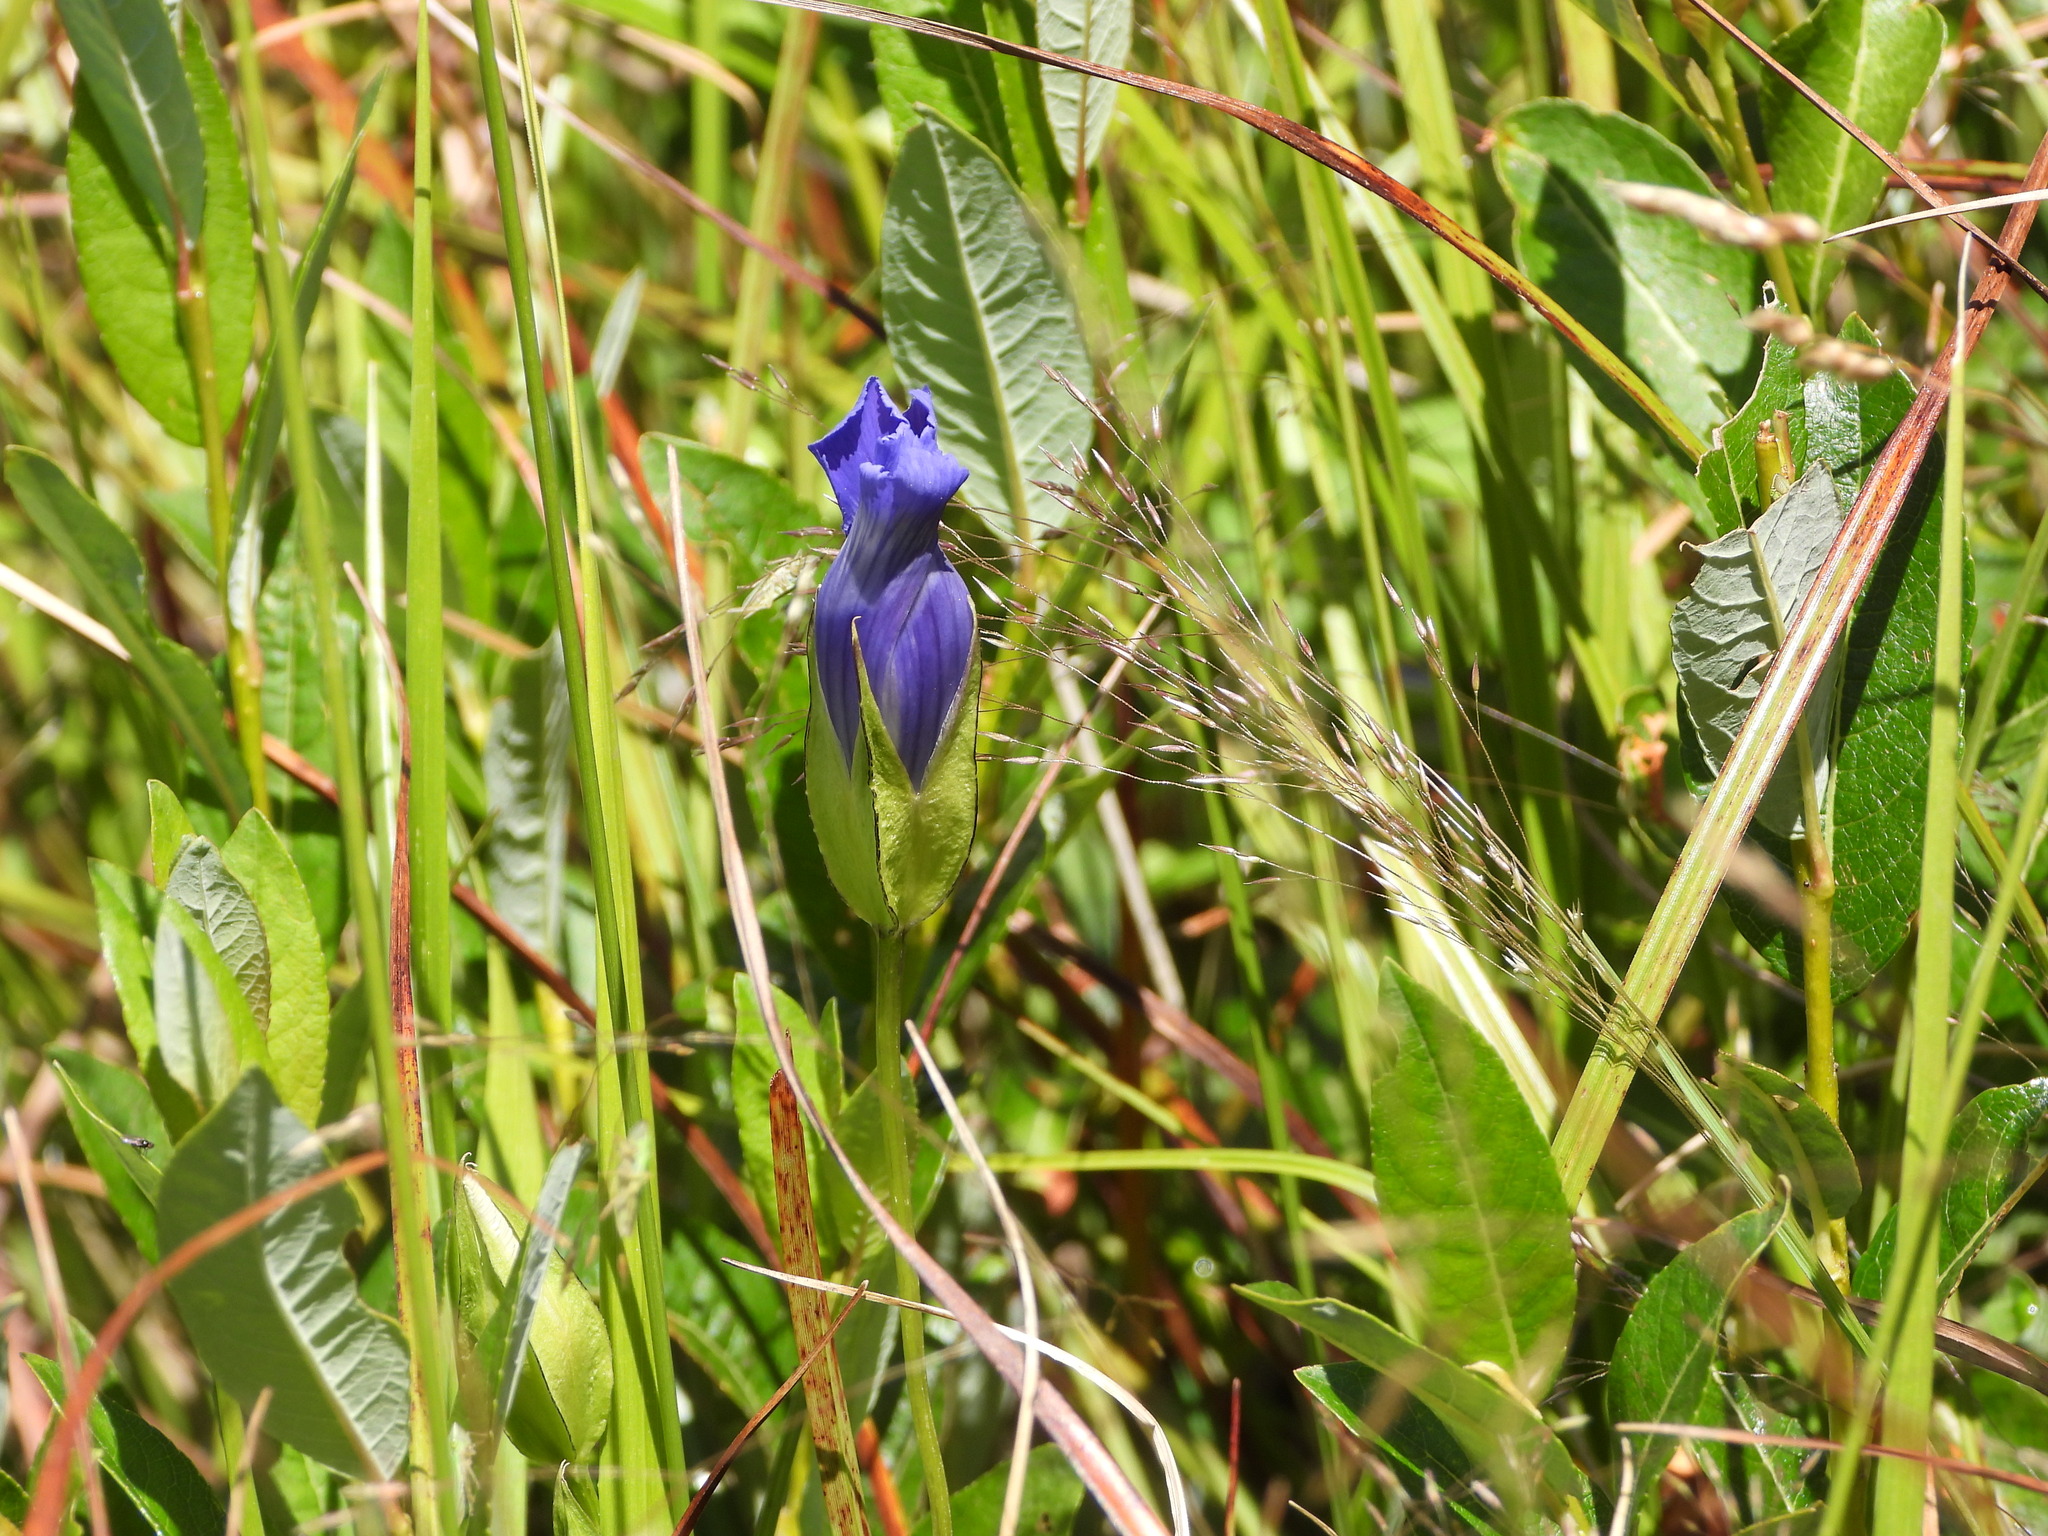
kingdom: Plantae
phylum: Tracheophyta
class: Magnoliopsida
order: Gentianales
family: Gentianaceae
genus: Gentianopsis
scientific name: Gentianopsis thermalis
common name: Rocky mountain fringed-gentian
